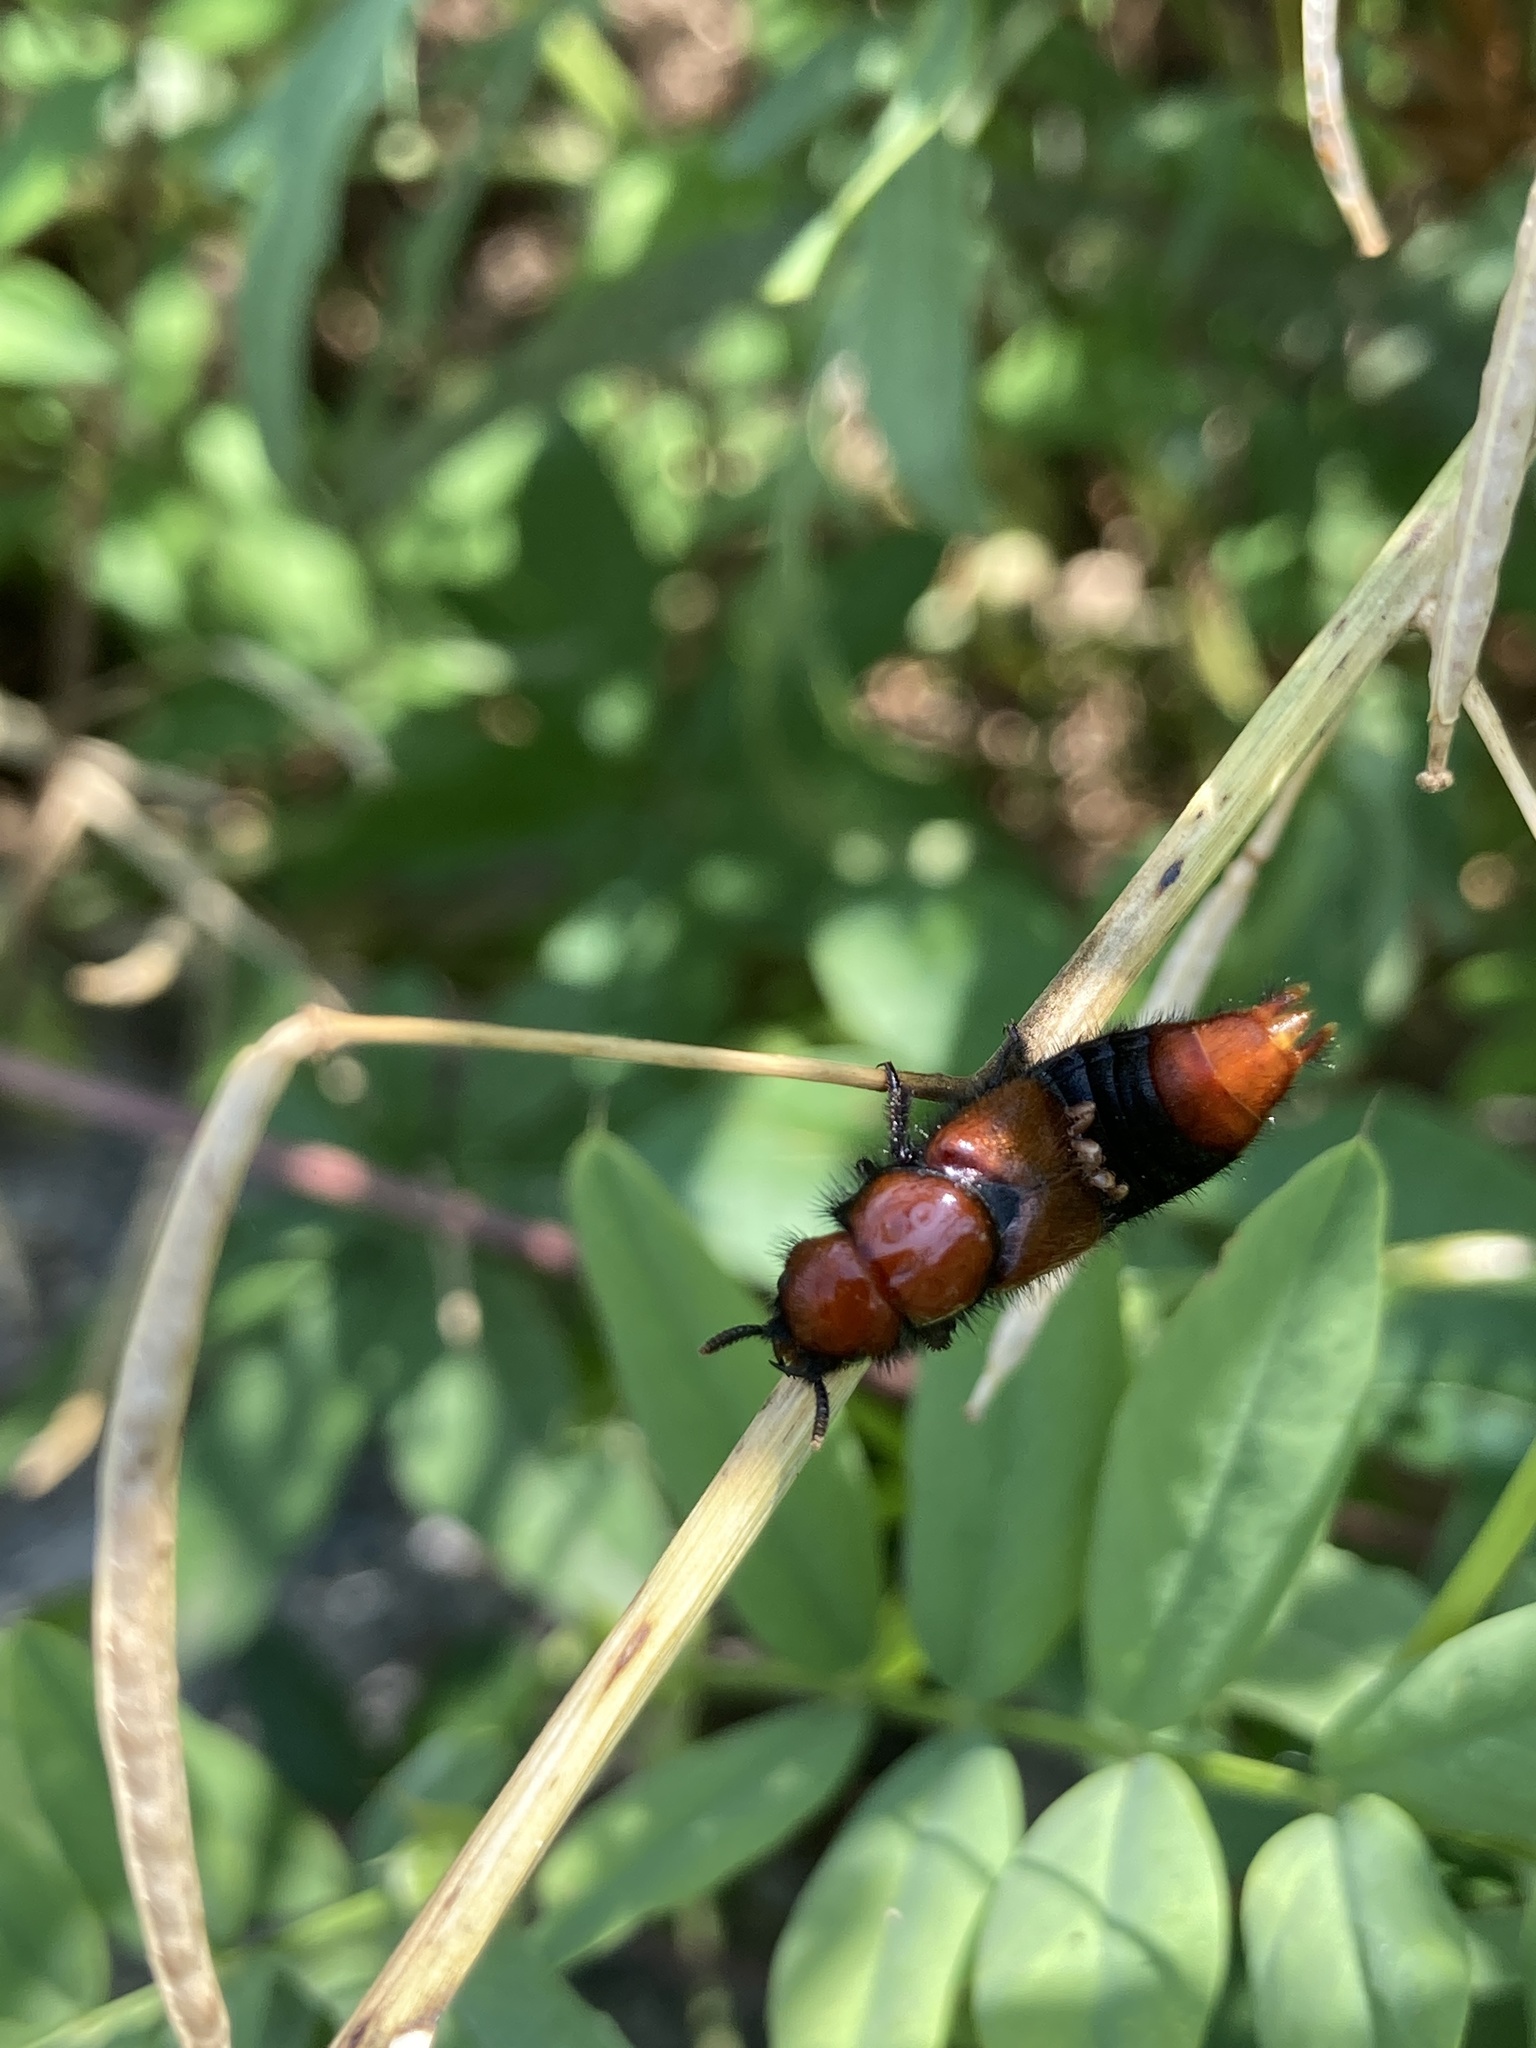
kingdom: Animalia
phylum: Arthropoda
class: Insecta
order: Coleoptera
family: Staphylinidae
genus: Haematodes
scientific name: Haematodes bicolor
